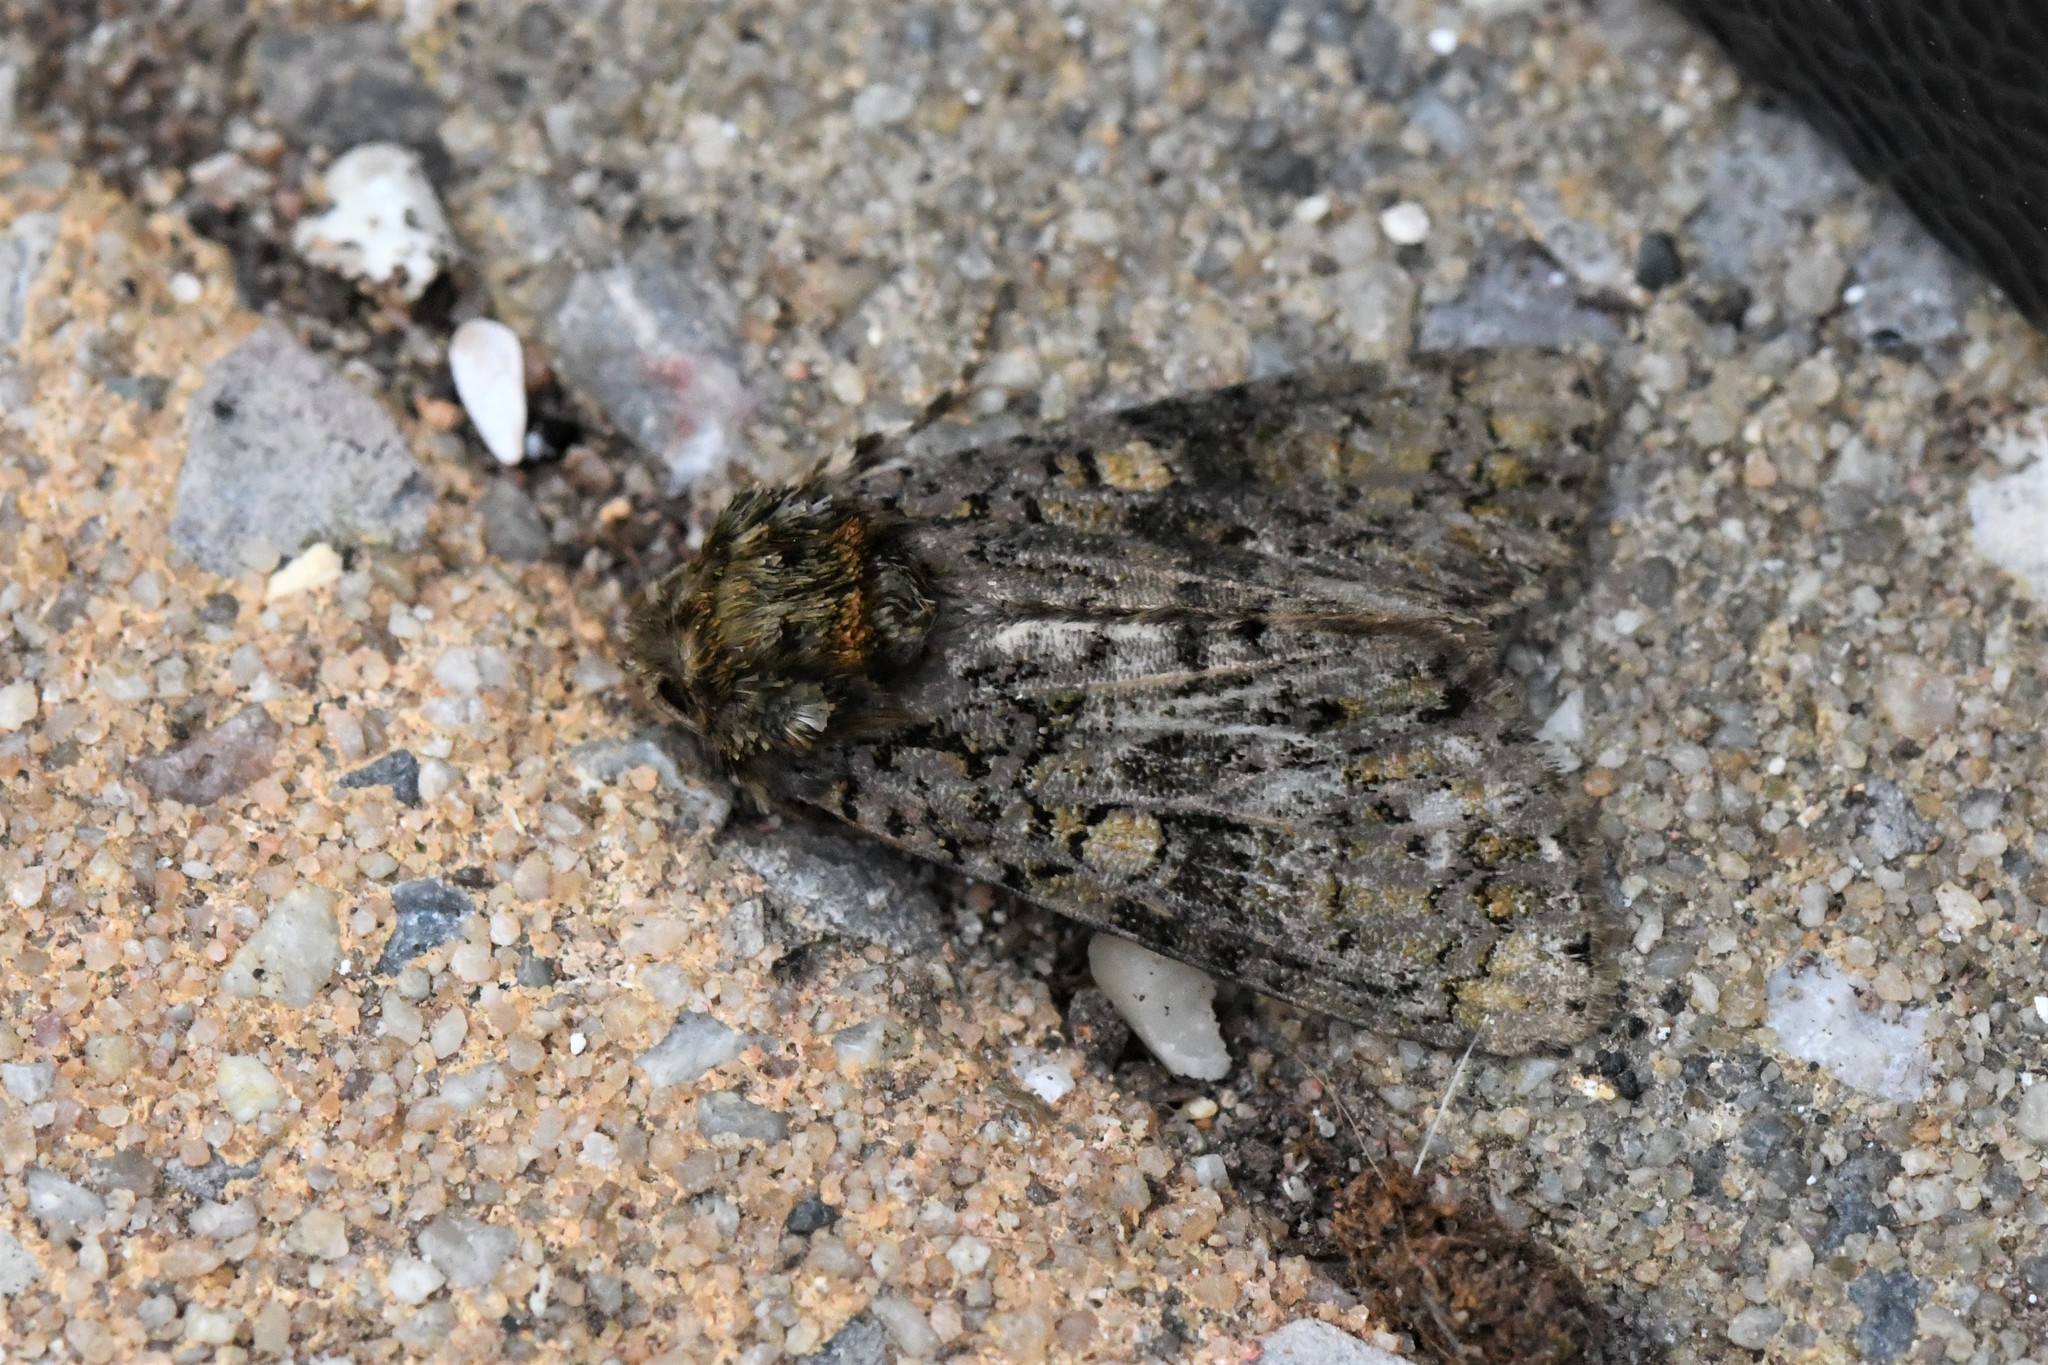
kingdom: Animalia
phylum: Arthropoda
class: Insecta
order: Lepidoptera
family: Noctuidae
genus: Craniophora
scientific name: Craniophora ligustri
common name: Coronet
